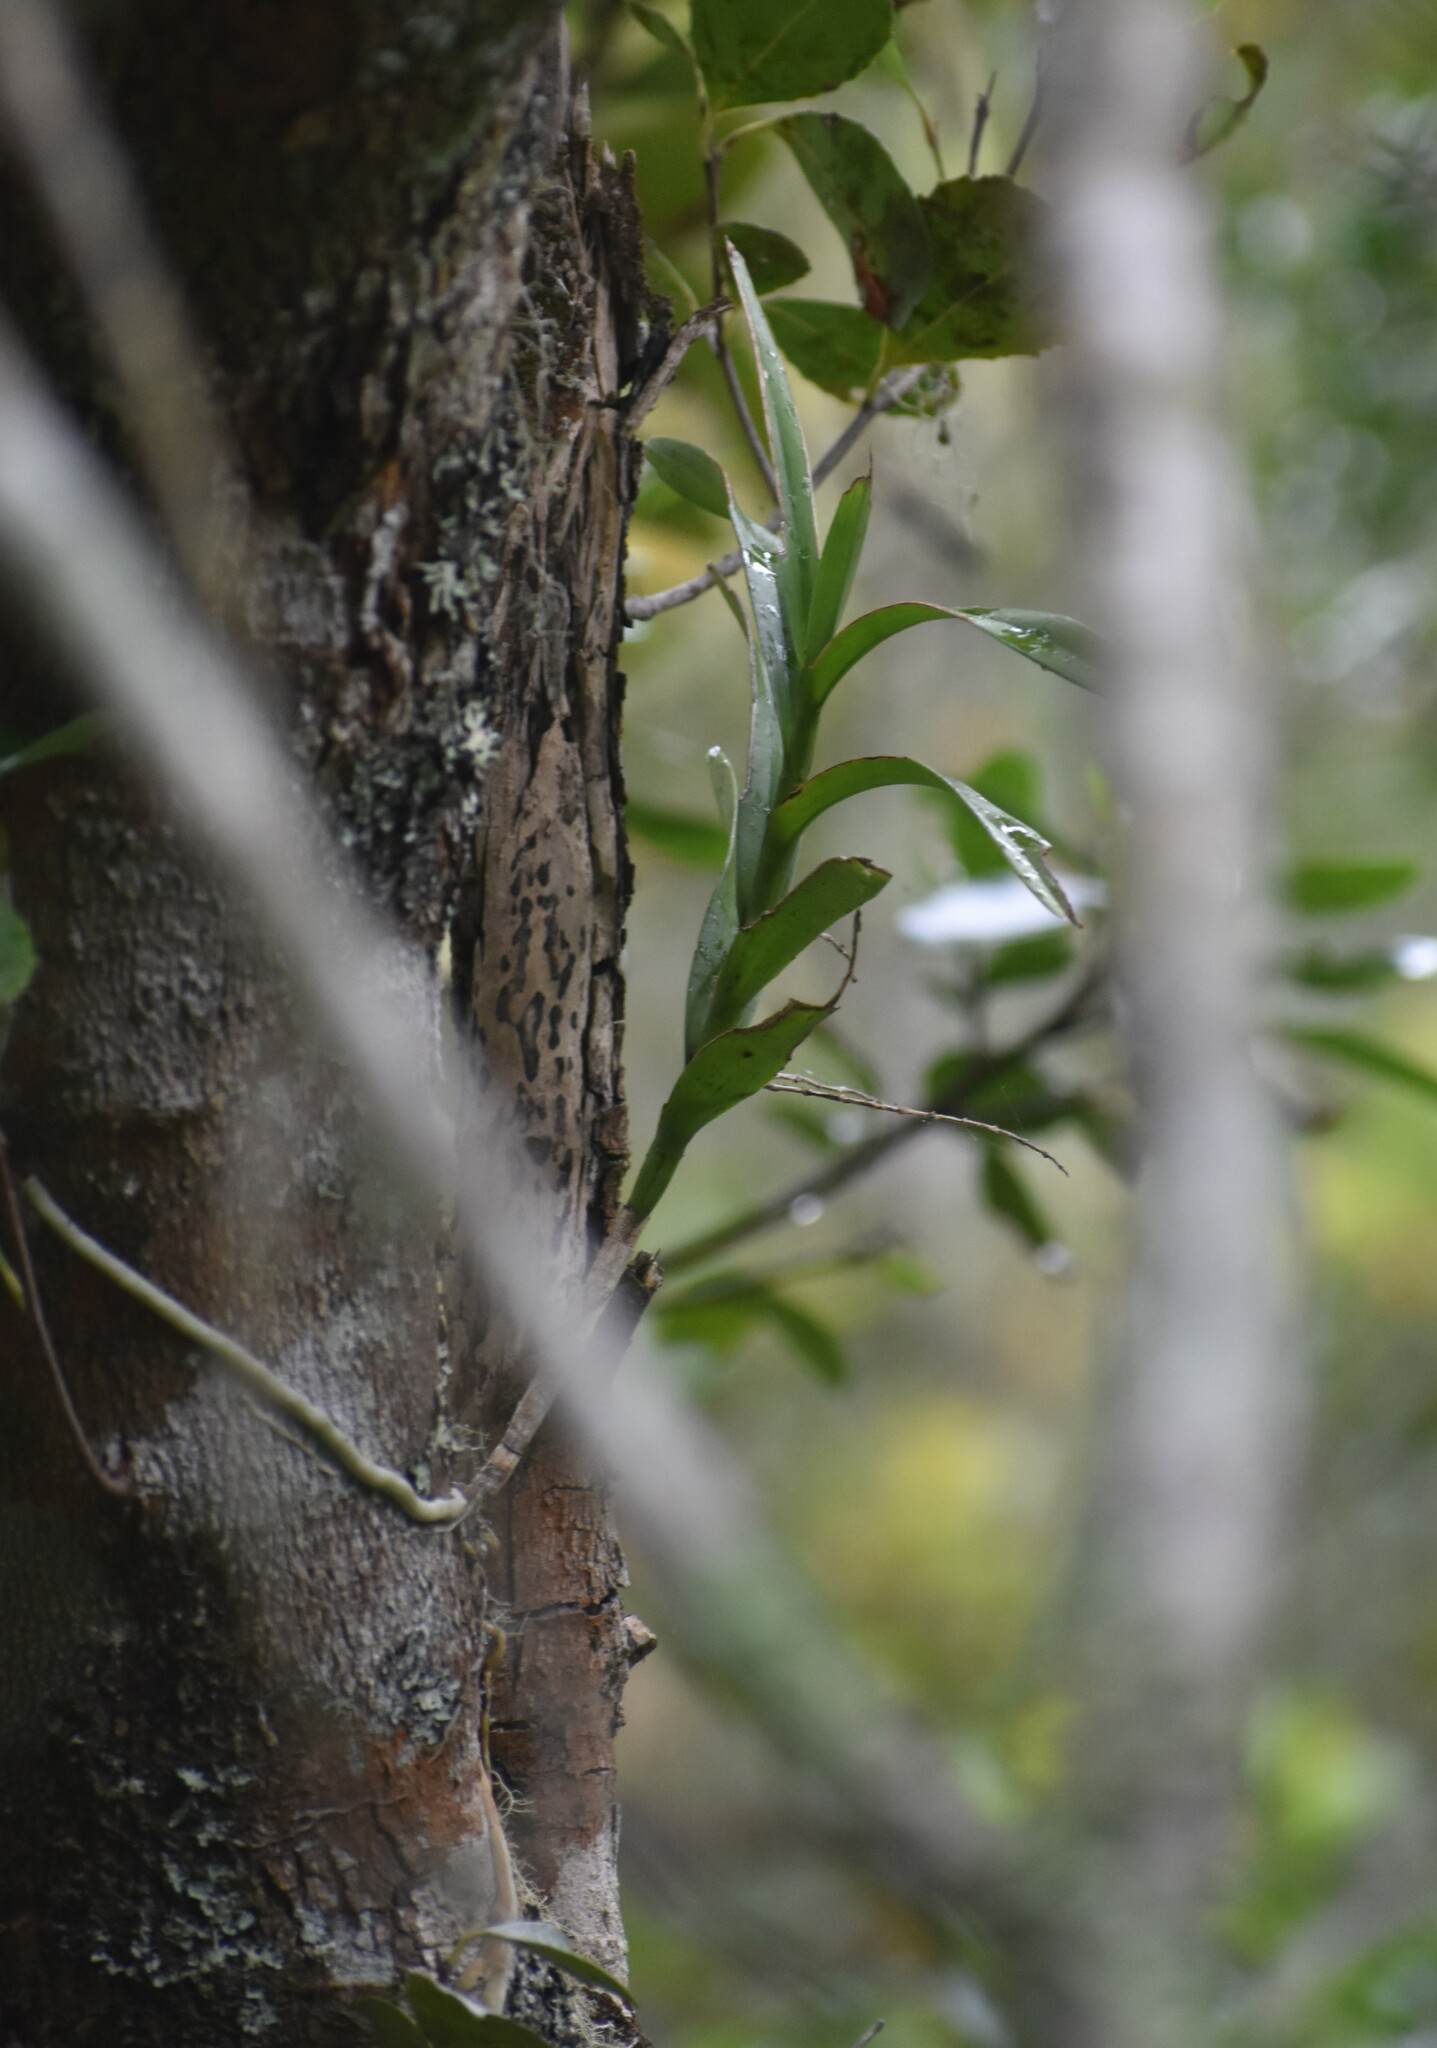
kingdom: Plantae
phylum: Tracheophyta
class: Liliopsida
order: Asparagales
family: Orchidaceae
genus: Tridactyle
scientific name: Tridactyle bicaudata
